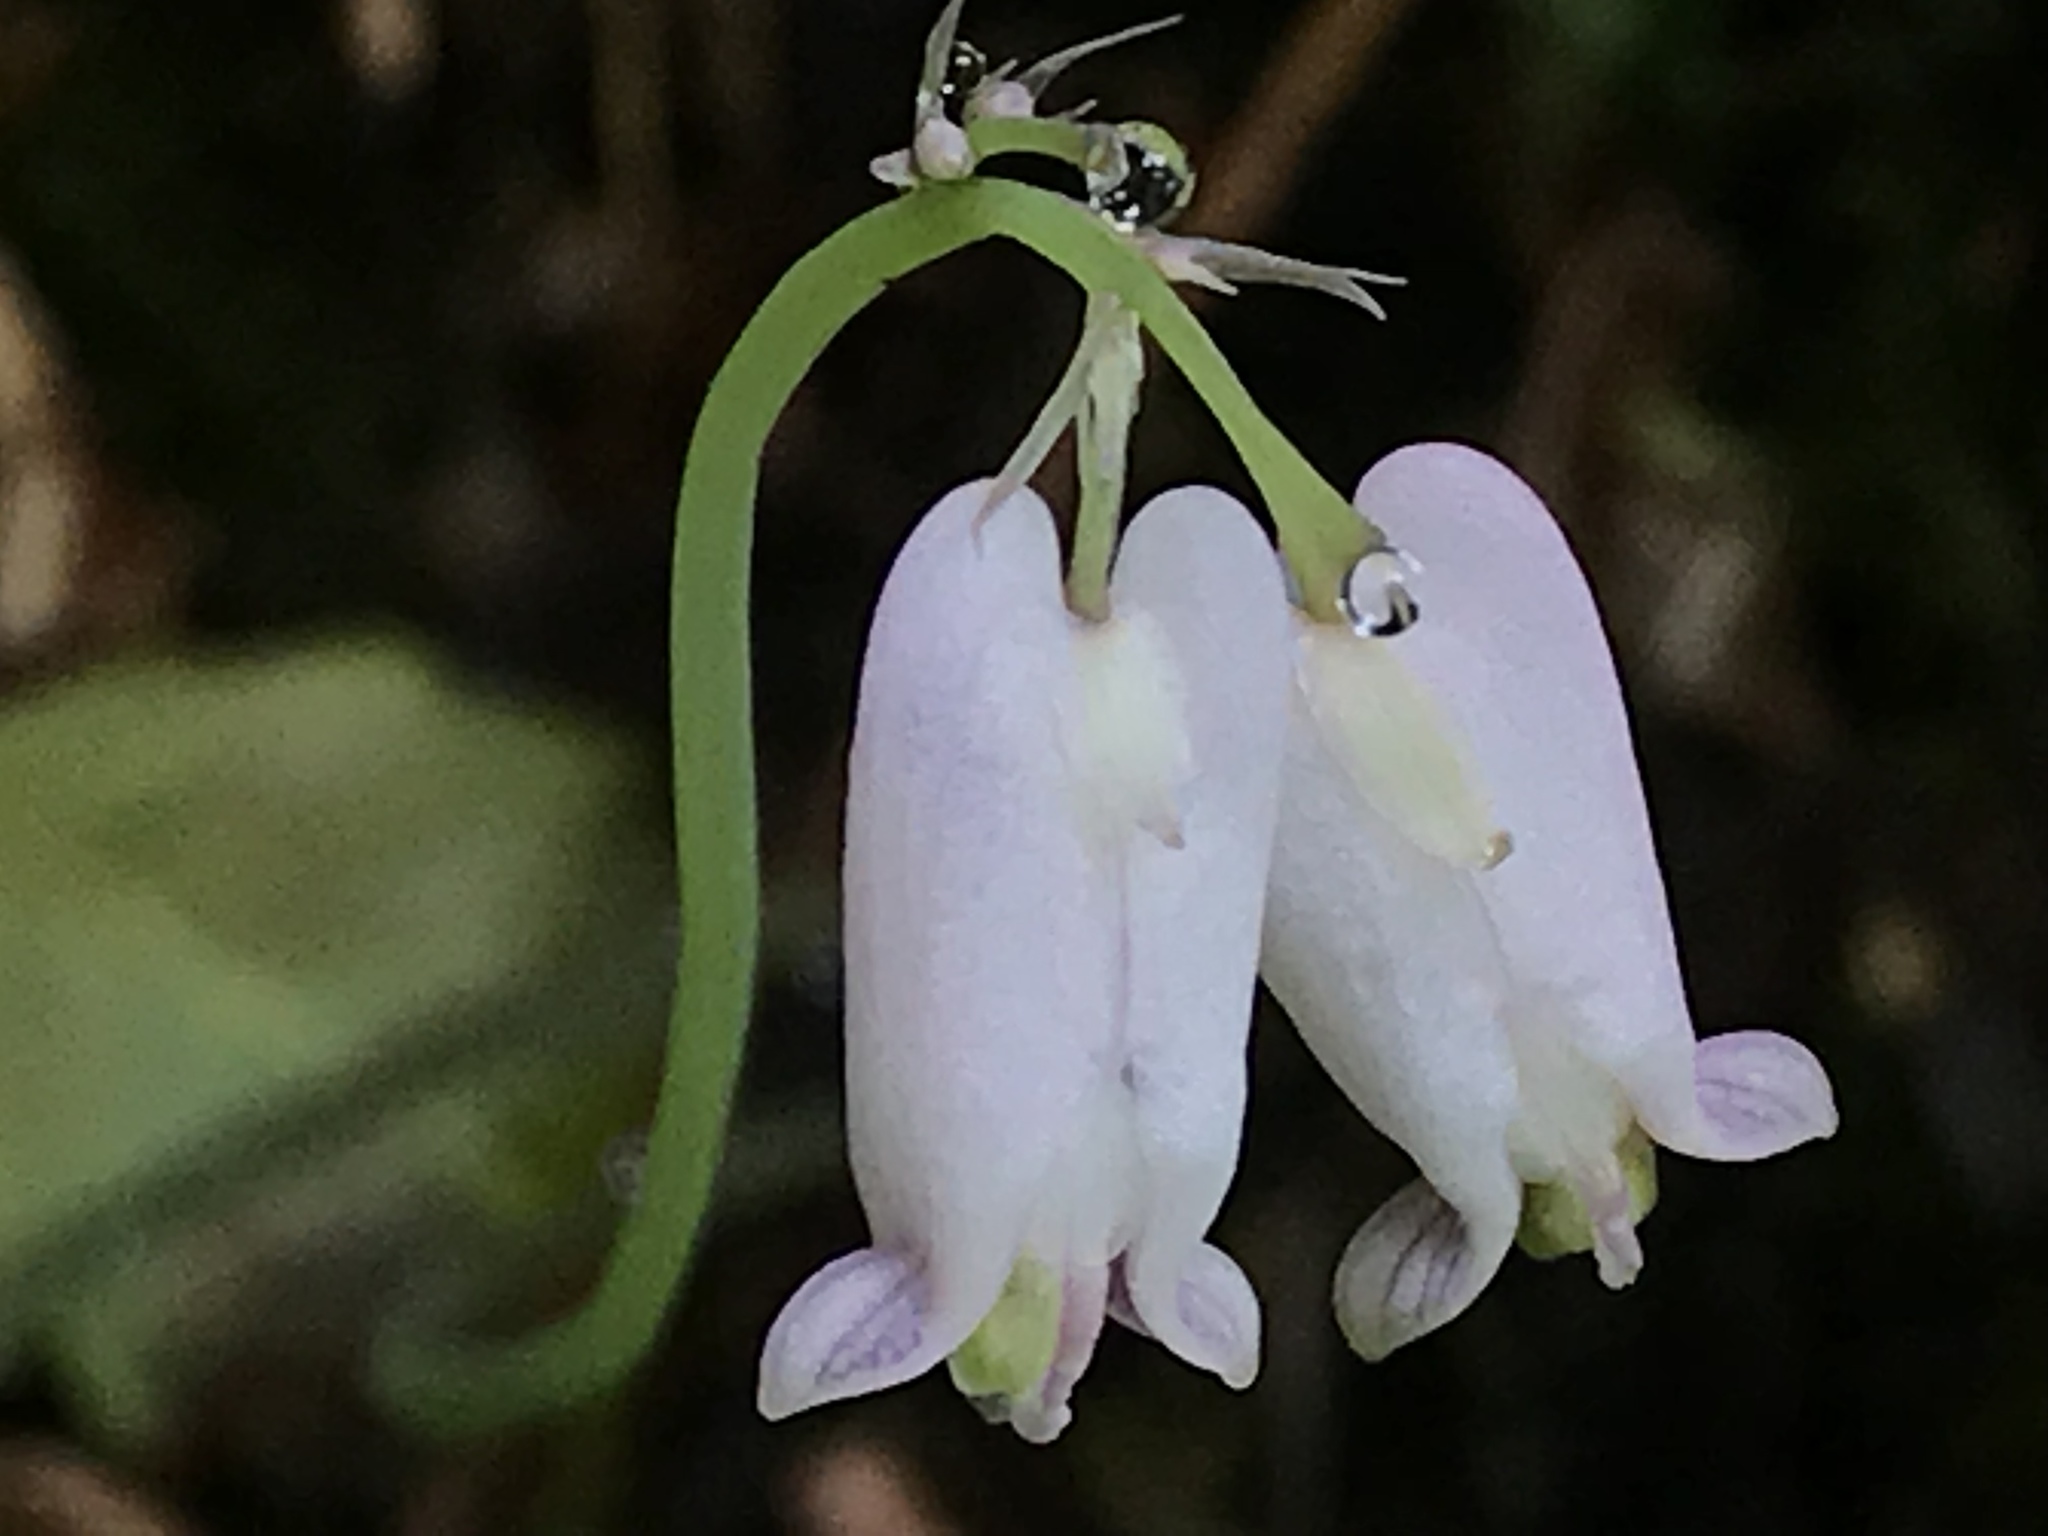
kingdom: Plantae
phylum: Tracheophyta
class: Magnoliopsida
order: Ranunculales
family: Papaveraceae
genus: Dicentra
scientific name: Dicentra formosa
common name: Bleeding-heart
